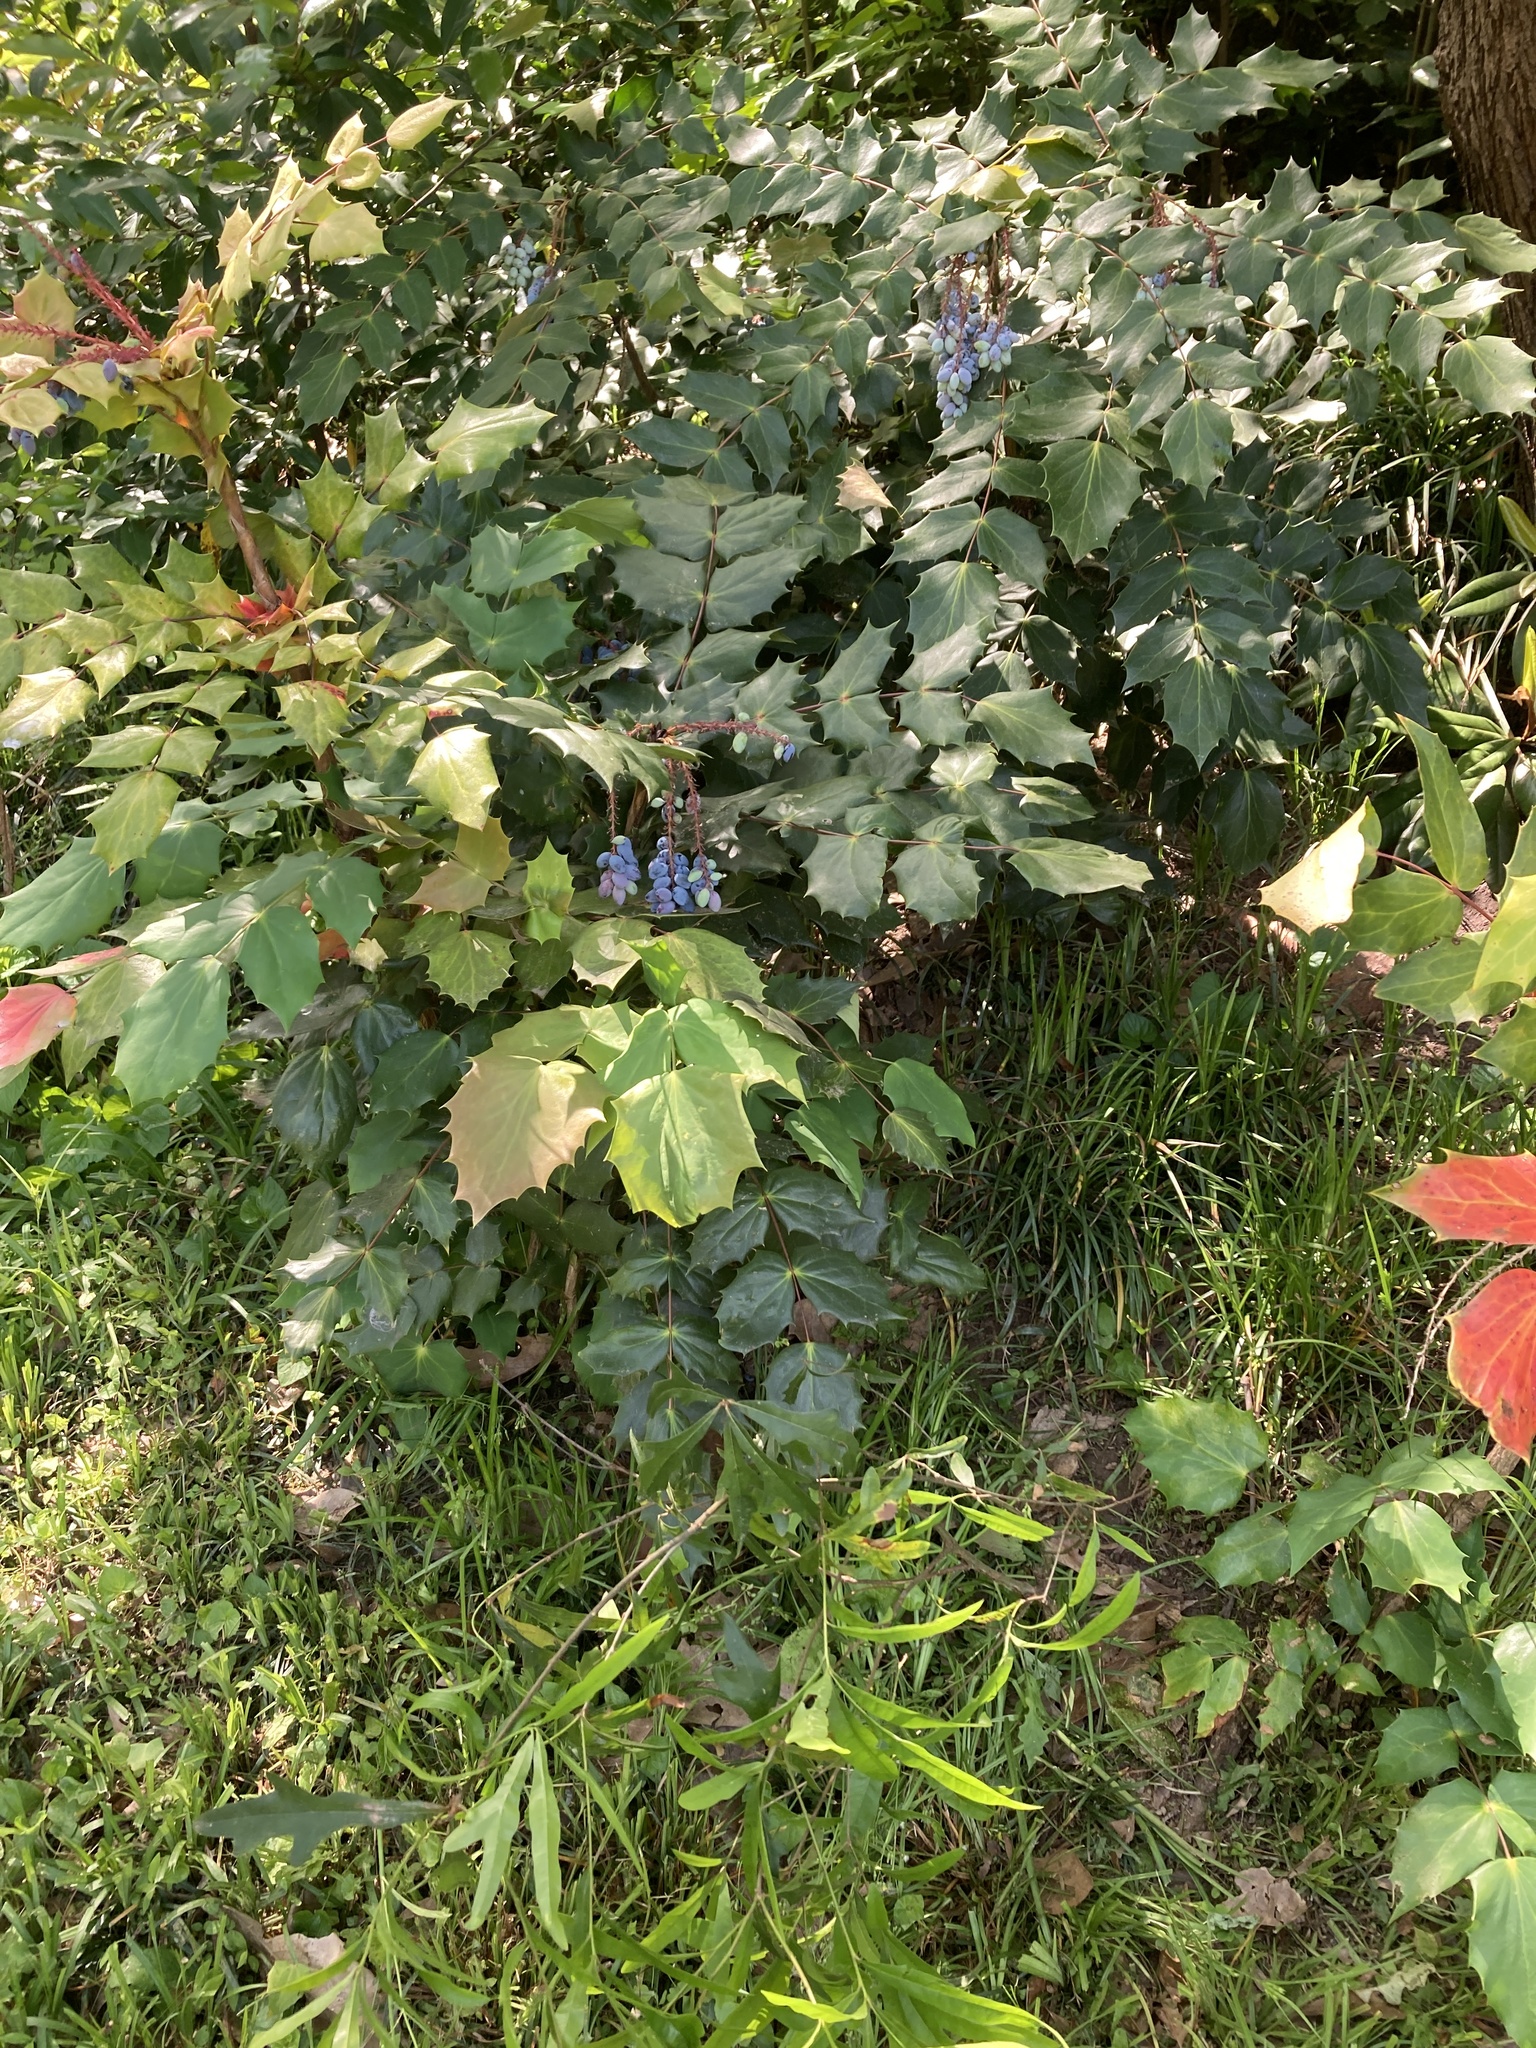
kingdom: Plantae
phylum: Tracheophyta
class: Magnoliopsida
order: Ranunculales
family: Berberidaceae
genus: Mahonia
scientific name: Mahonia bealei
